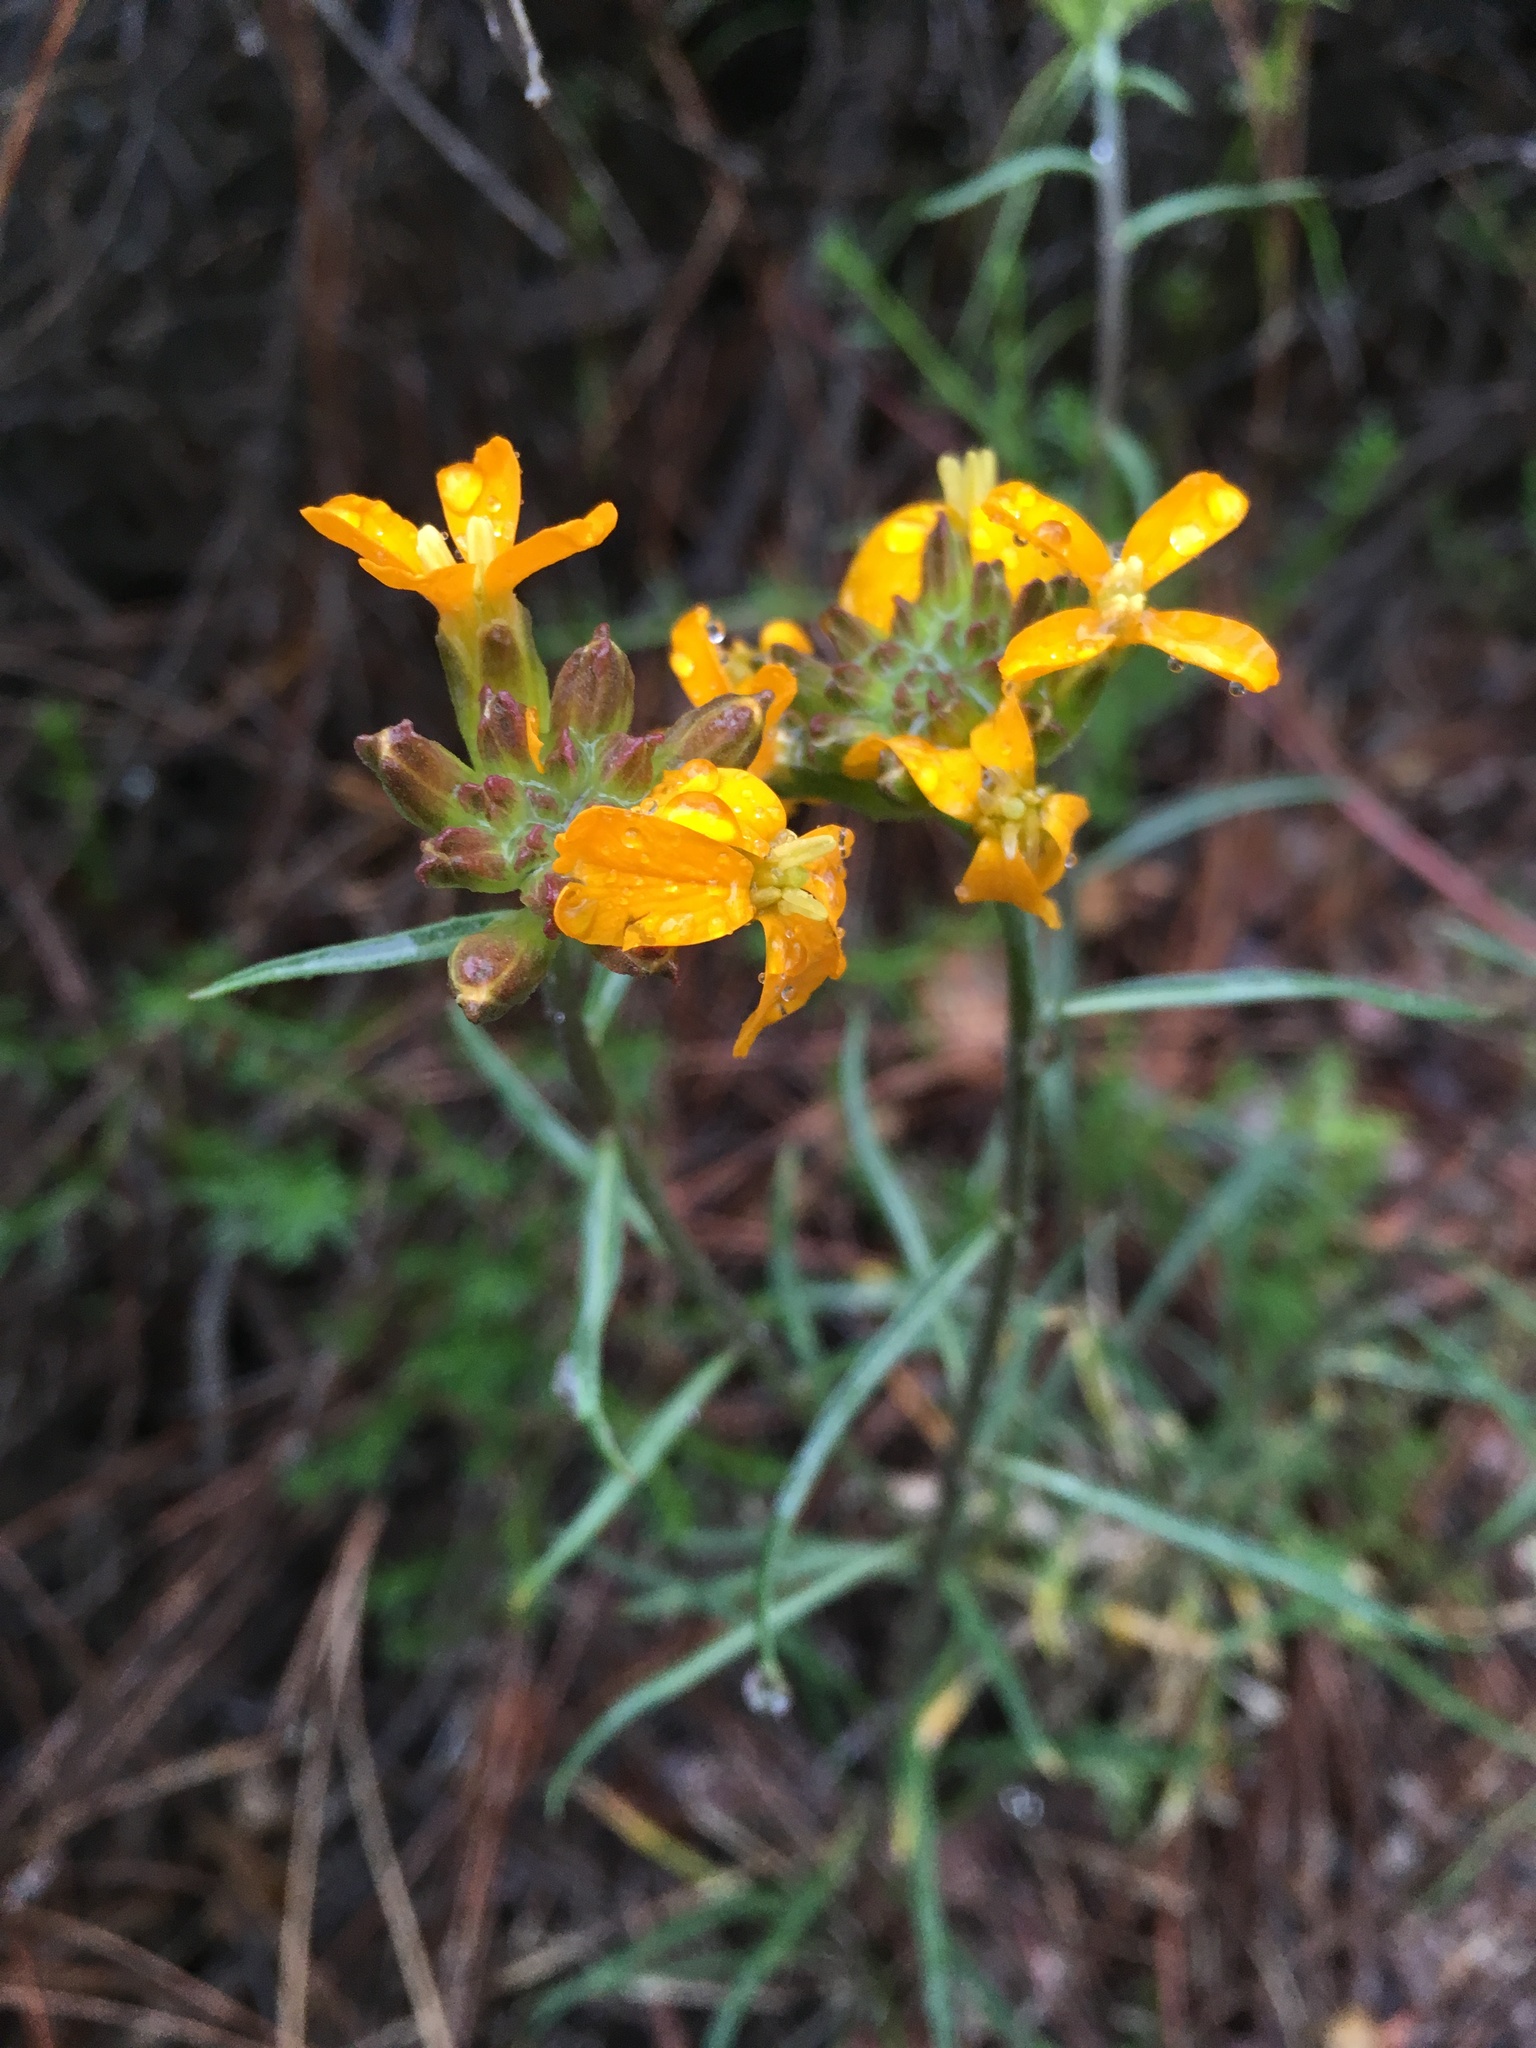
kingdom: Plantae
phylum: Tracheophyta
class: Magnoliopsida
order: Brassicales
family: Brassicaceae
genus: Erysimum
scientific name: Erysimum capitatum
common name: Western wallflower
